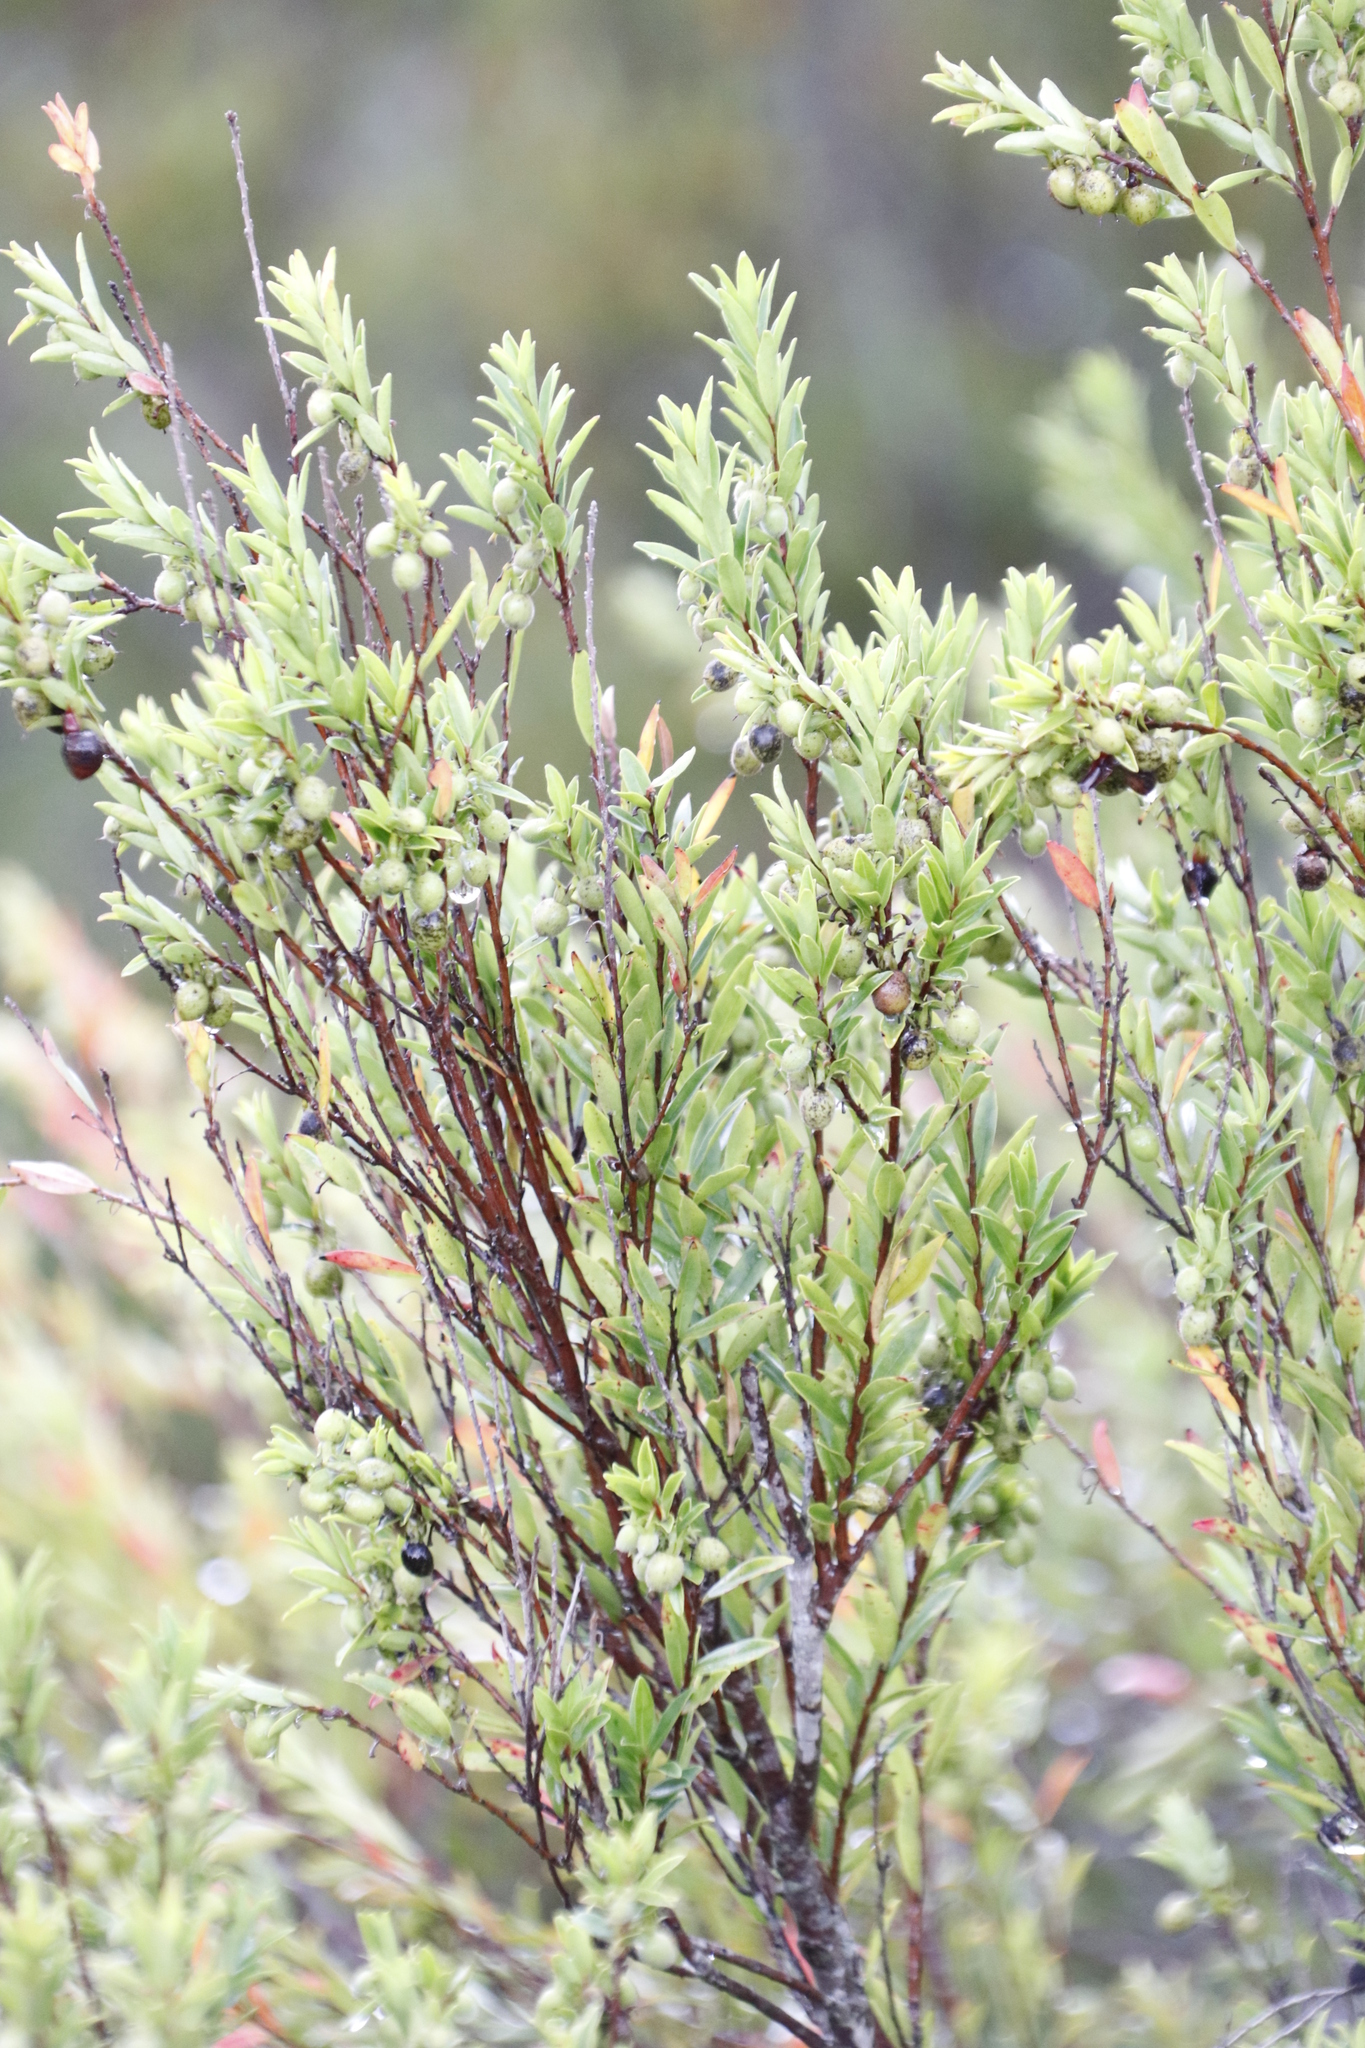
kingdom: Plantae
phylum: Tracheophyta
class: Magnoliopsida
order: Ericales
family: Ebenaceae
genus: Diospyros
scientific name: Diospyros glabra
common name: Fynbos star apple
